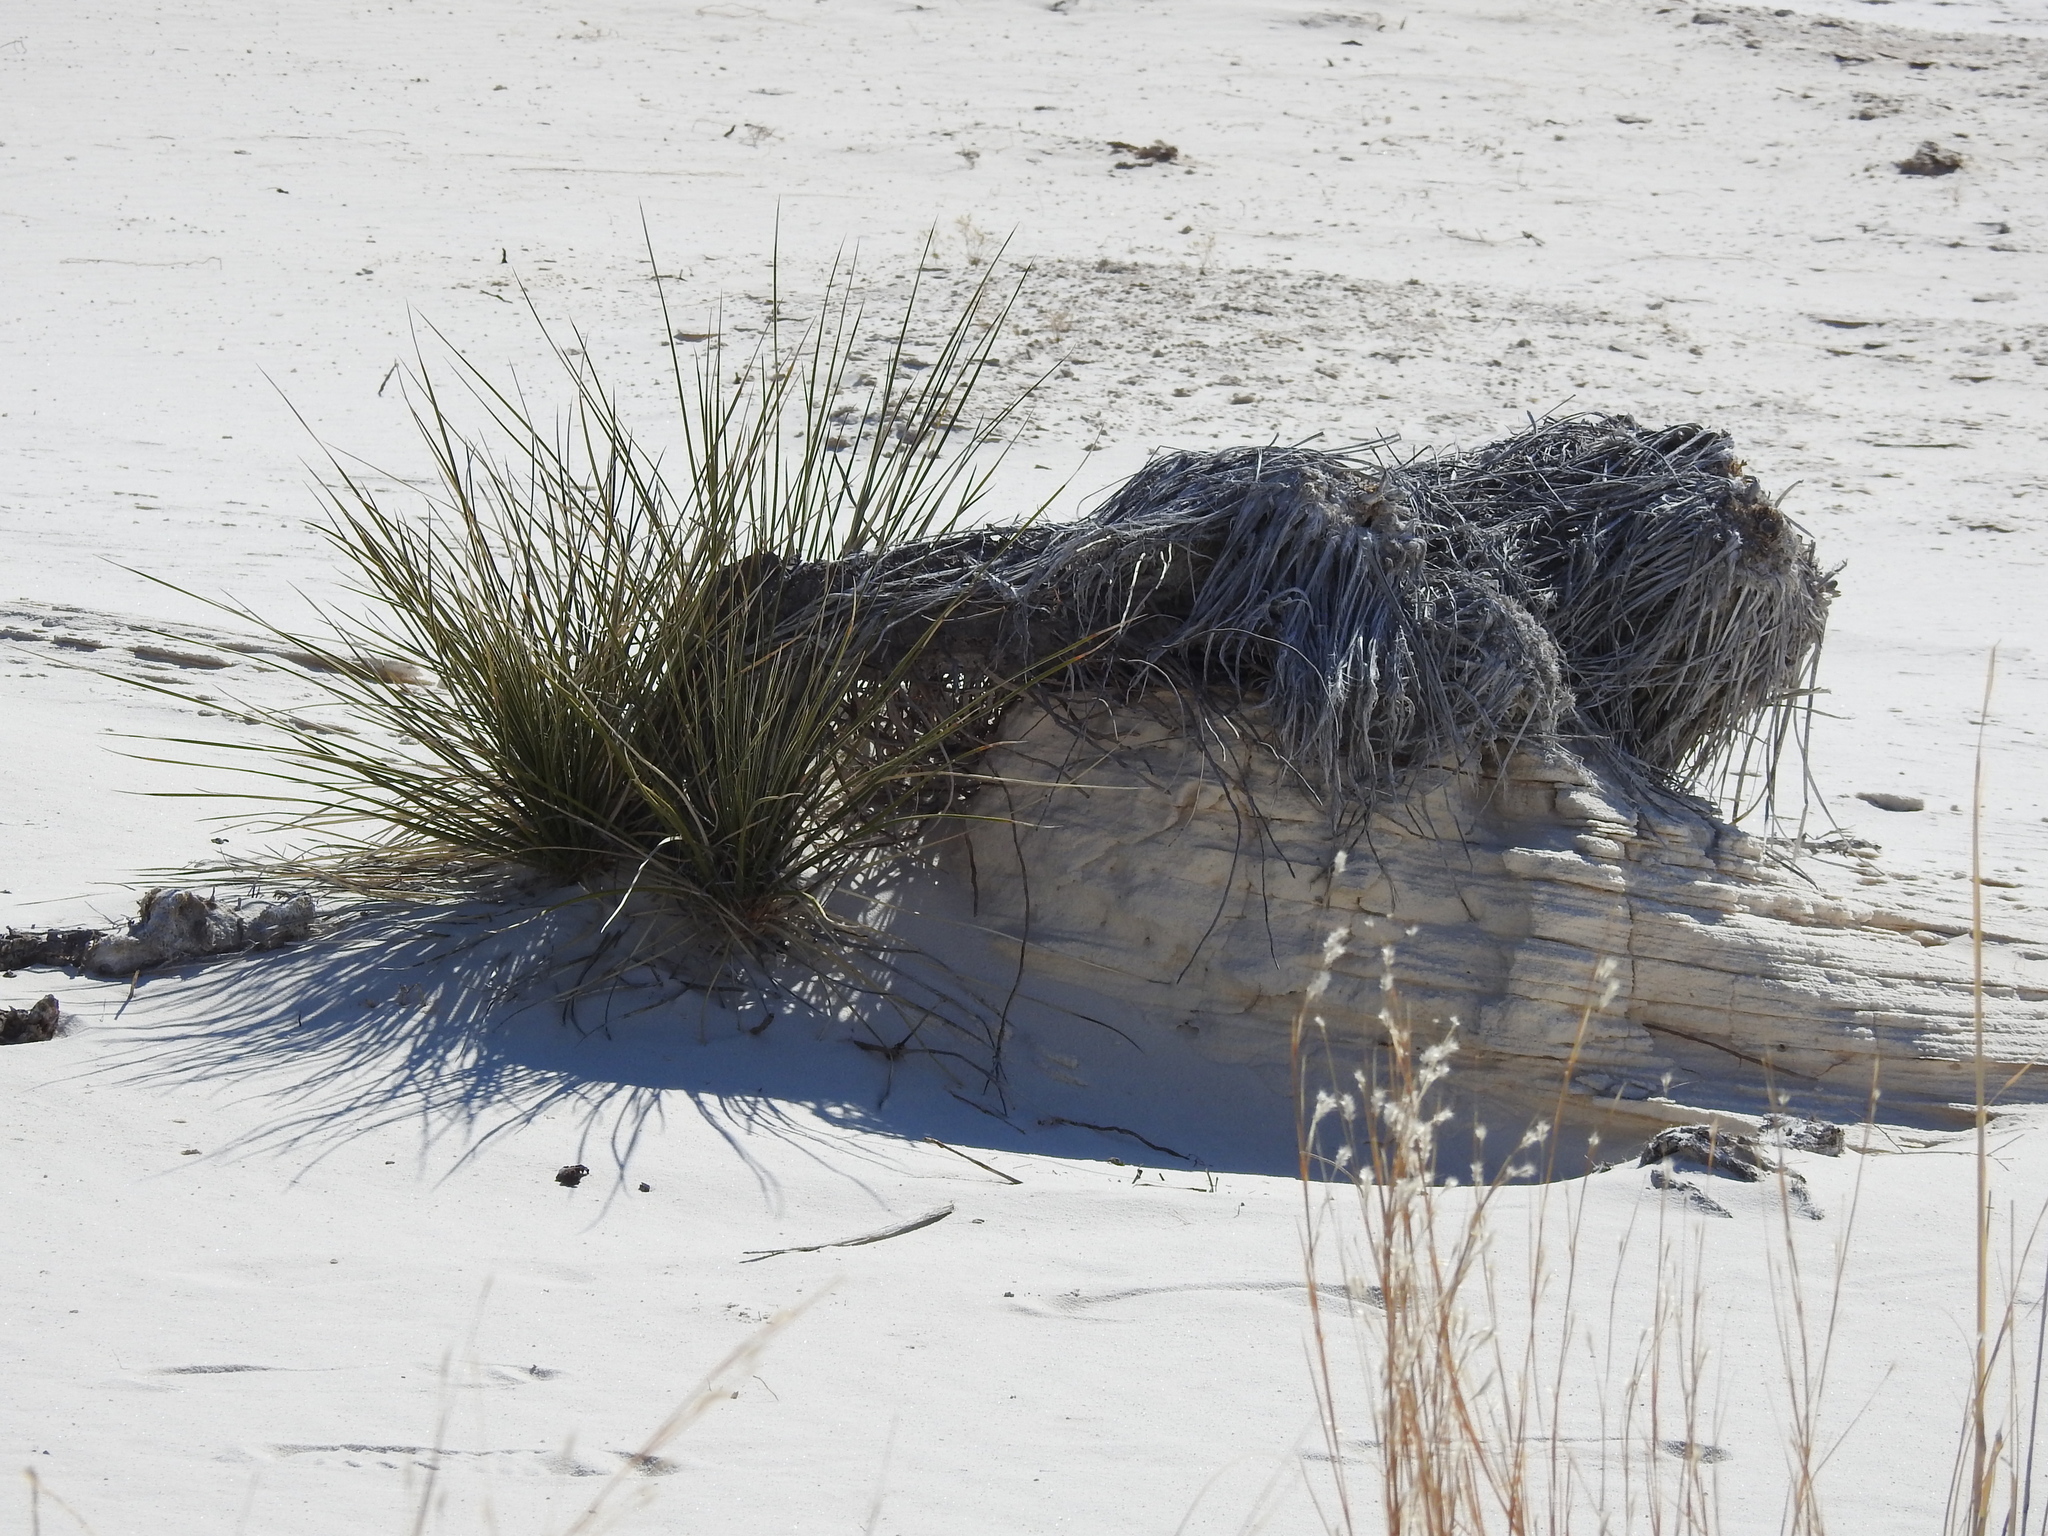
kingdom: Plantae
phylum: Tracheophyta
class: Liliopsida
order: Asparagales
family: Asparagaceae
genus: Yucca
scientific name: Yucca elata
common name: Palmella
